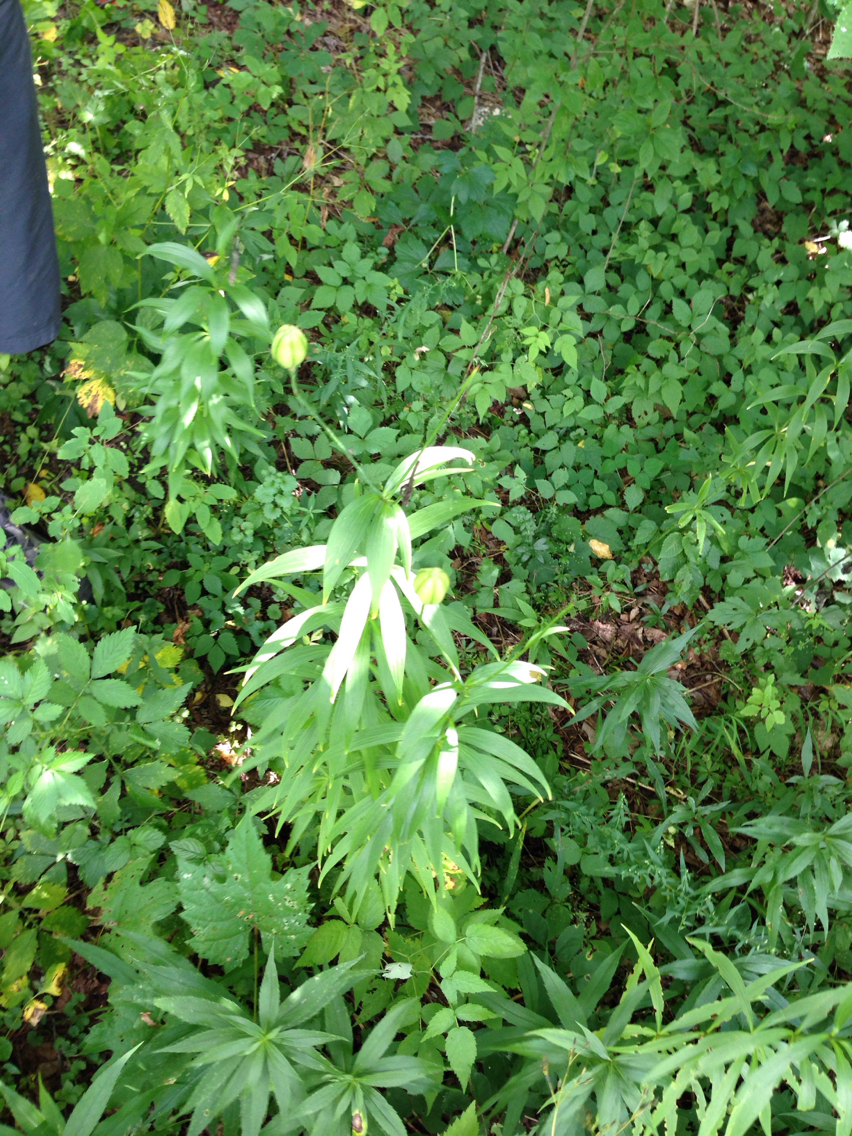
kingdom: Plantae
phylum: Tracheophyta
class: Liliopsida
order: Liliales
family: Liliaceae
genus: Lilium
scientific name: Lilium canadense
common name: Canada lily
